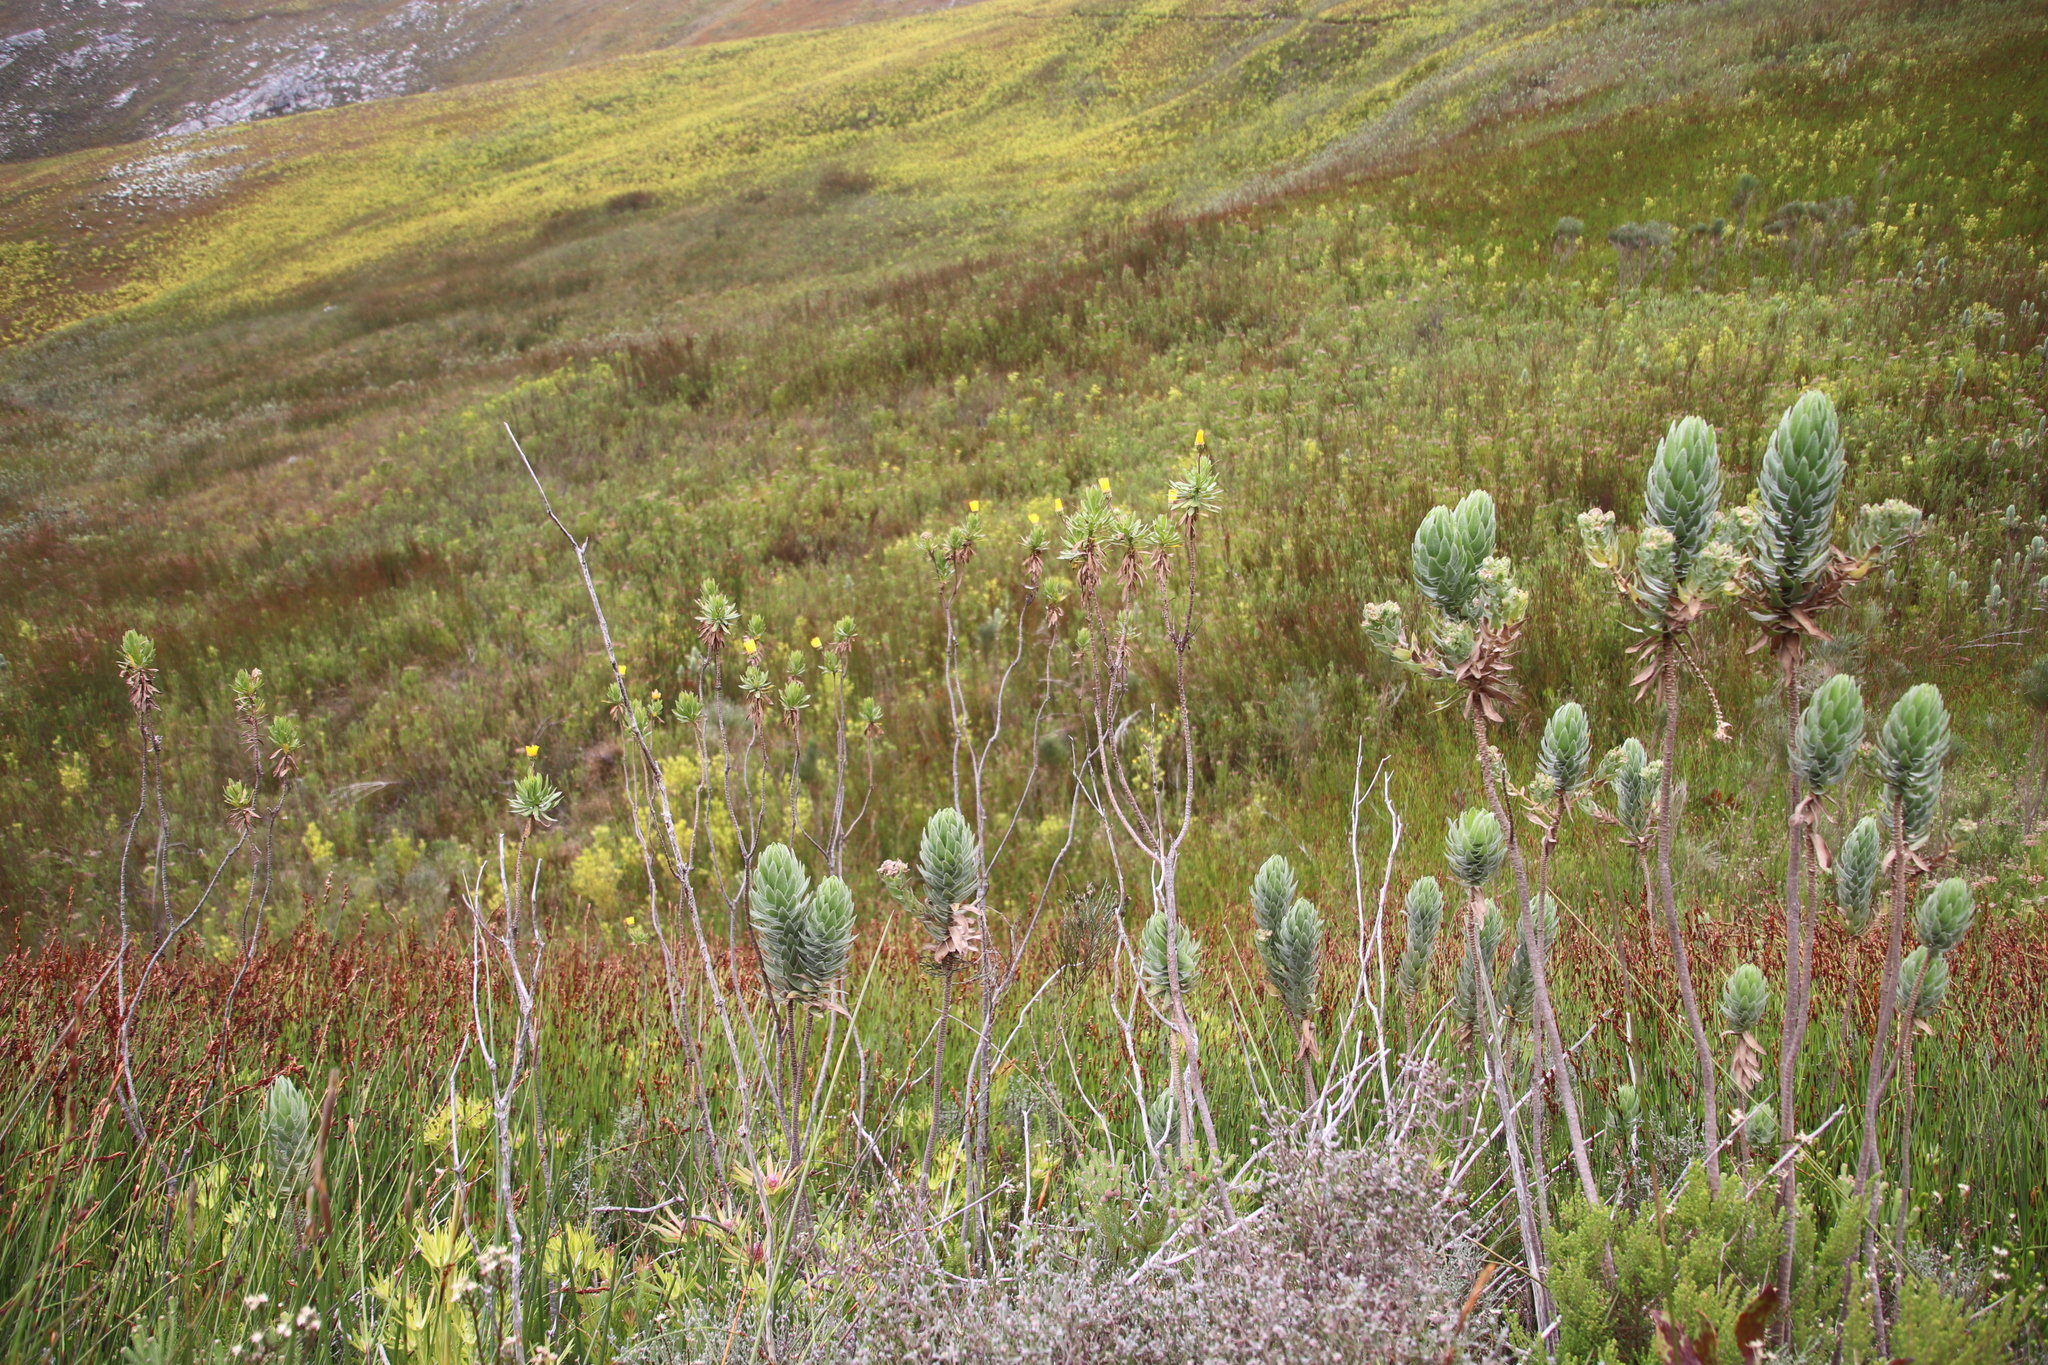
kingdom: Plantae
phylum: Tracheophyta
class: Magnoliopsida
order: Asterales
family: Asteraceae
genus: Ursinia
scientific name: Ursinia eckloniana
